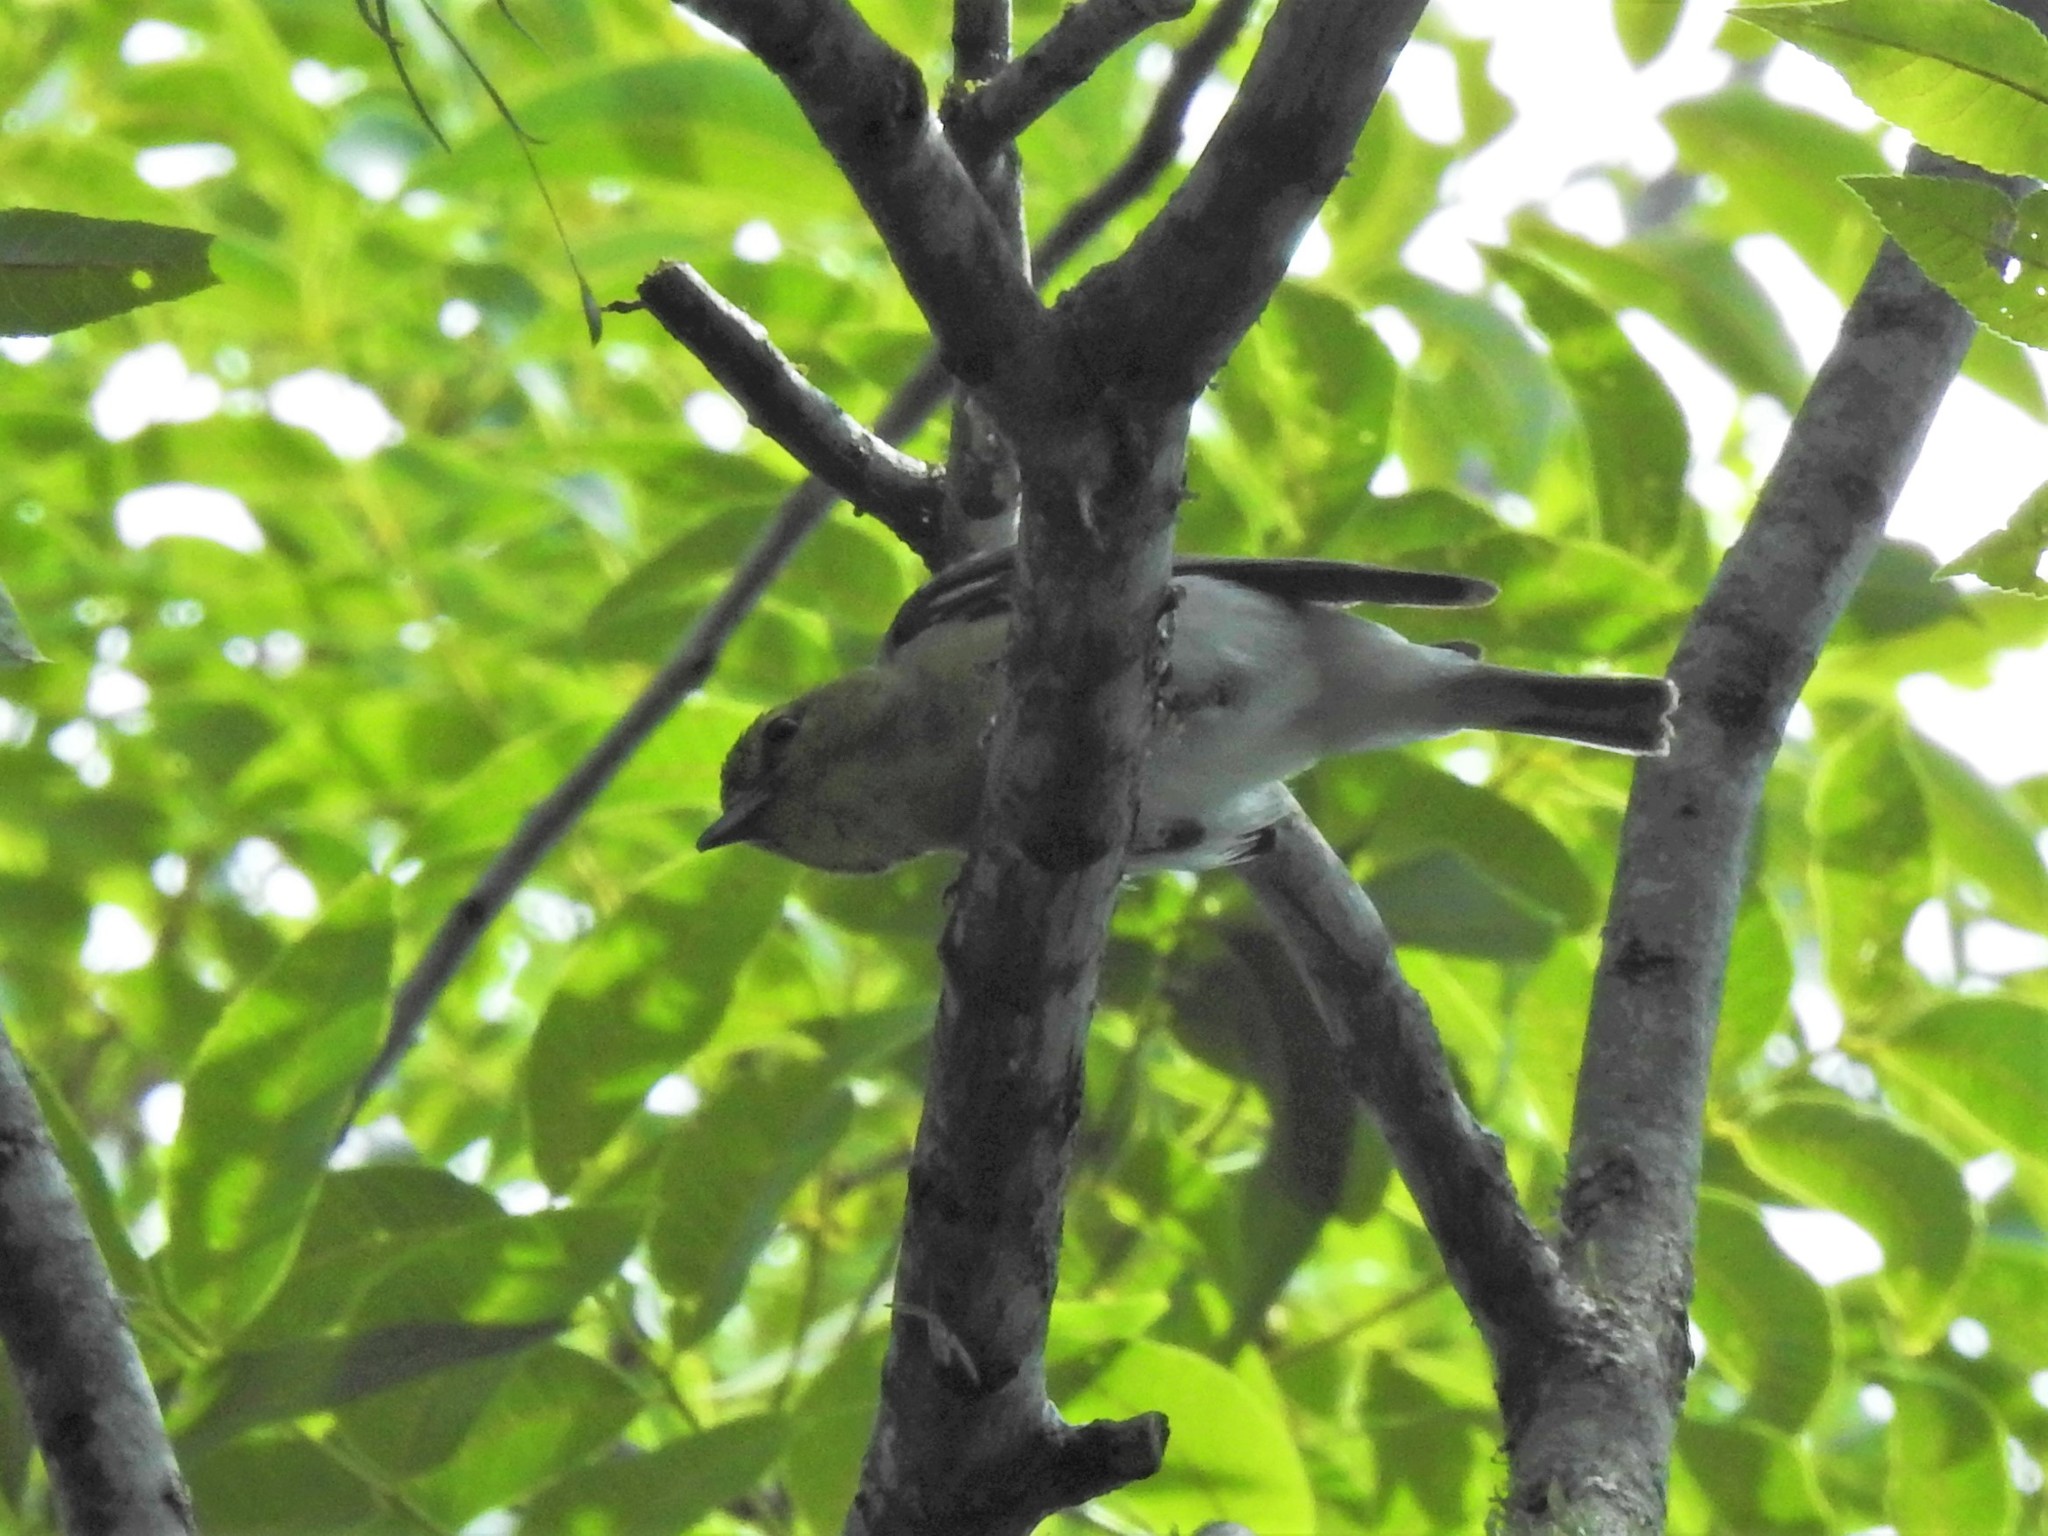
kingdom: Animalia
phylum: Chordata
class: Aves
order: Passeriformes
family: Vireonidae
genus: Vireo
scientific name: Vireo flavifrons
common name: Yellow-throated vireo
